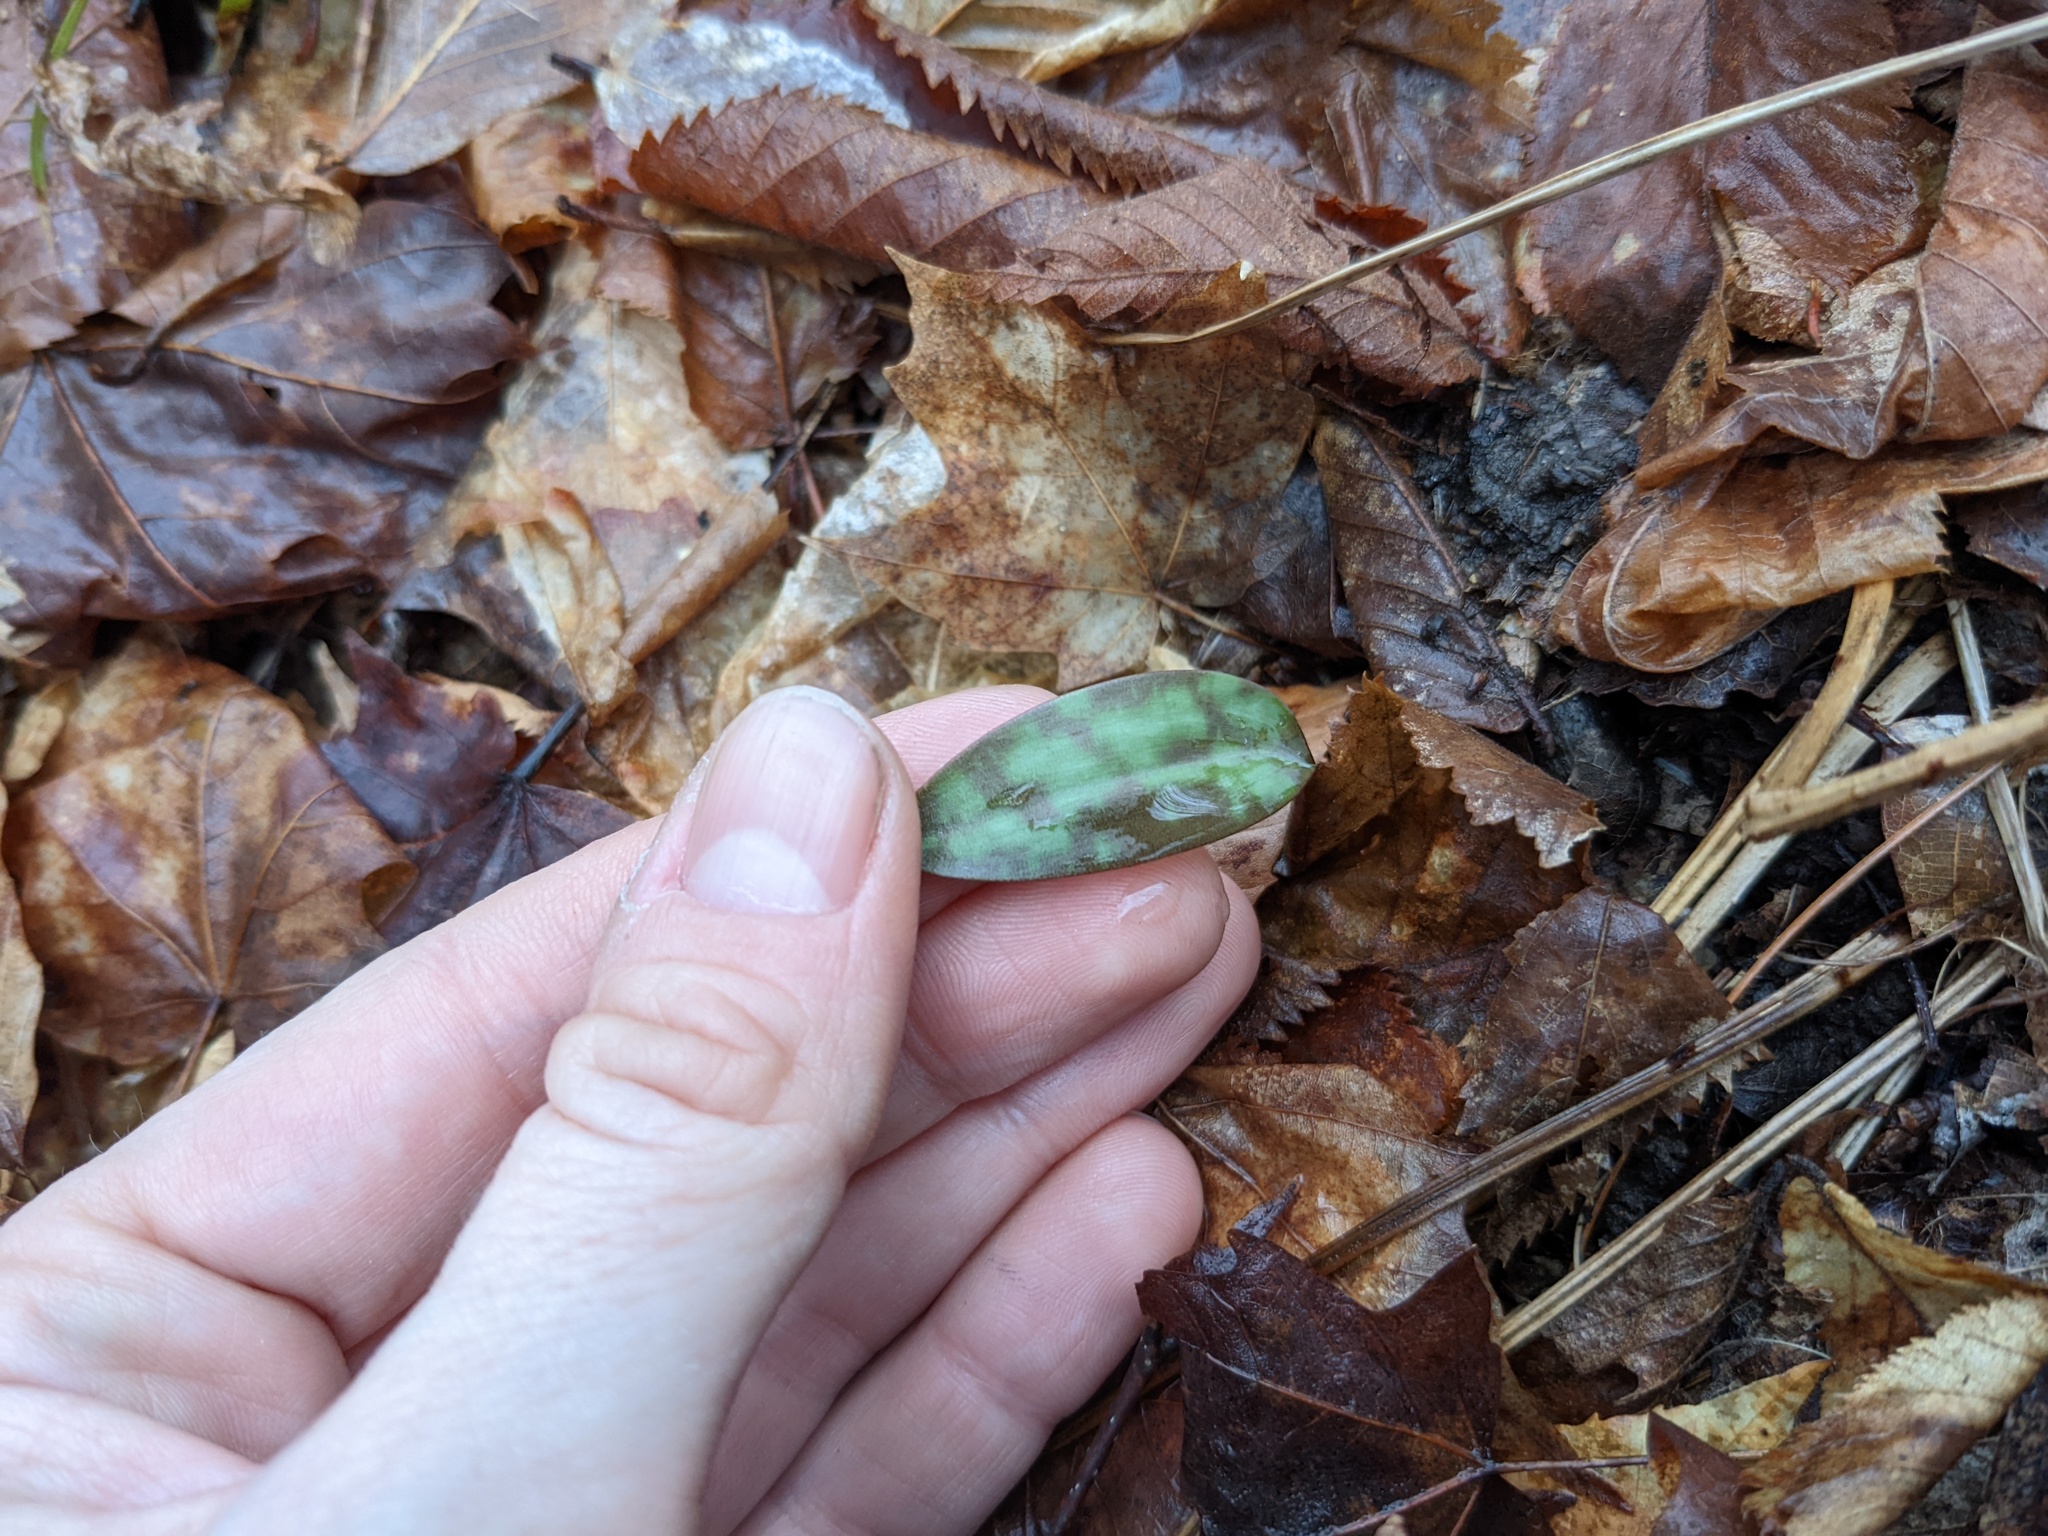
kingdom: Plantae
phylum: Tracheophyta
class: Liliopsida
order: Liliales
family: Liliaceae
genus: Erythronium
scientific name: Erythronium americanum
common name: Yellow adder's-tongue
